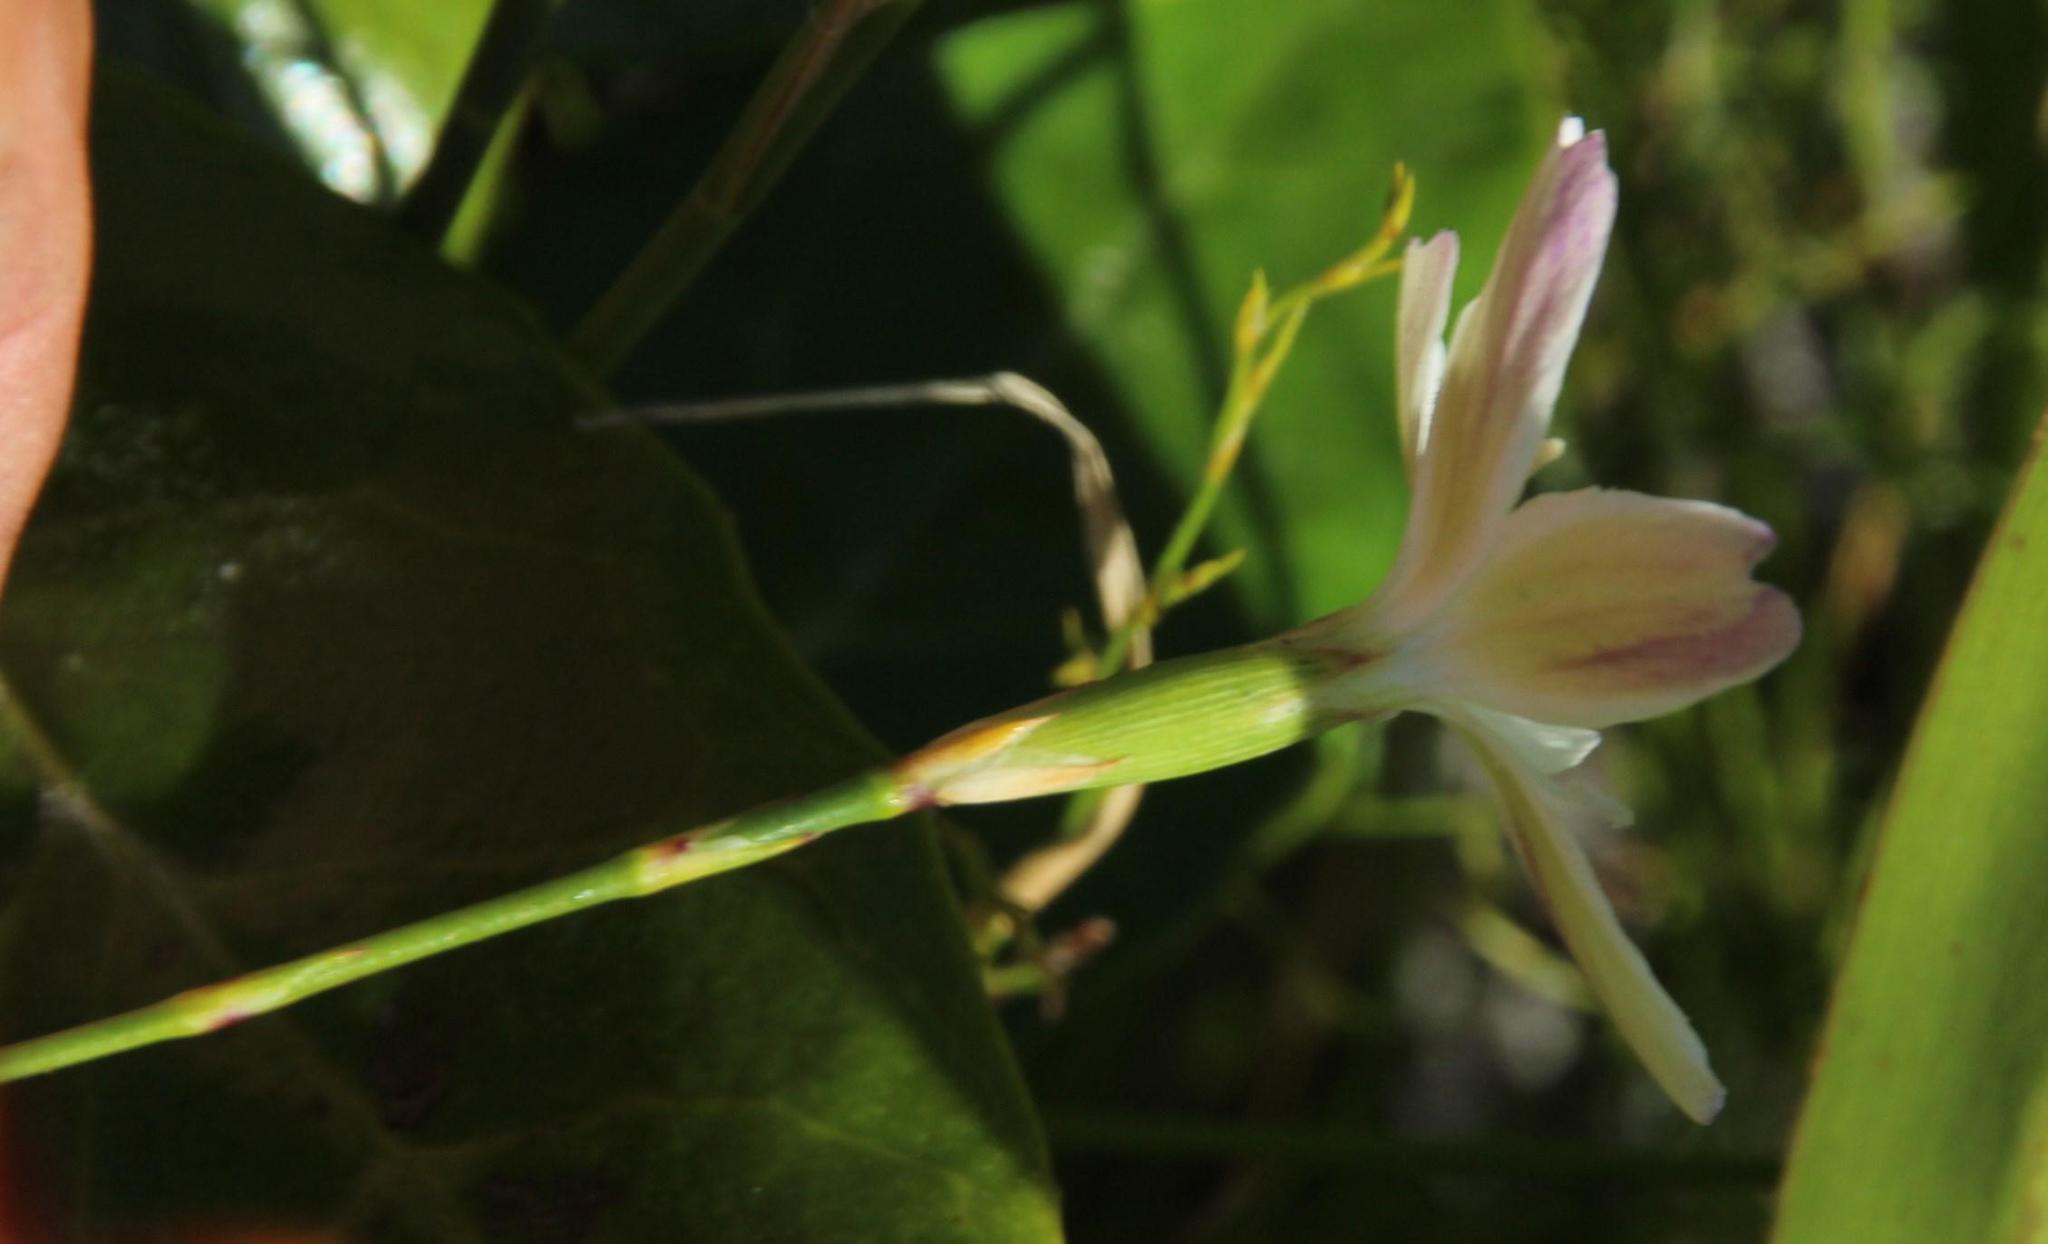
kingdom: Plantae
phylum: Tracheophyta
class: Magnoliopsida
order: Caryophyllales
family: Caryophyllaceae
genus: Dianthus
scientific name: Dianthus albens
